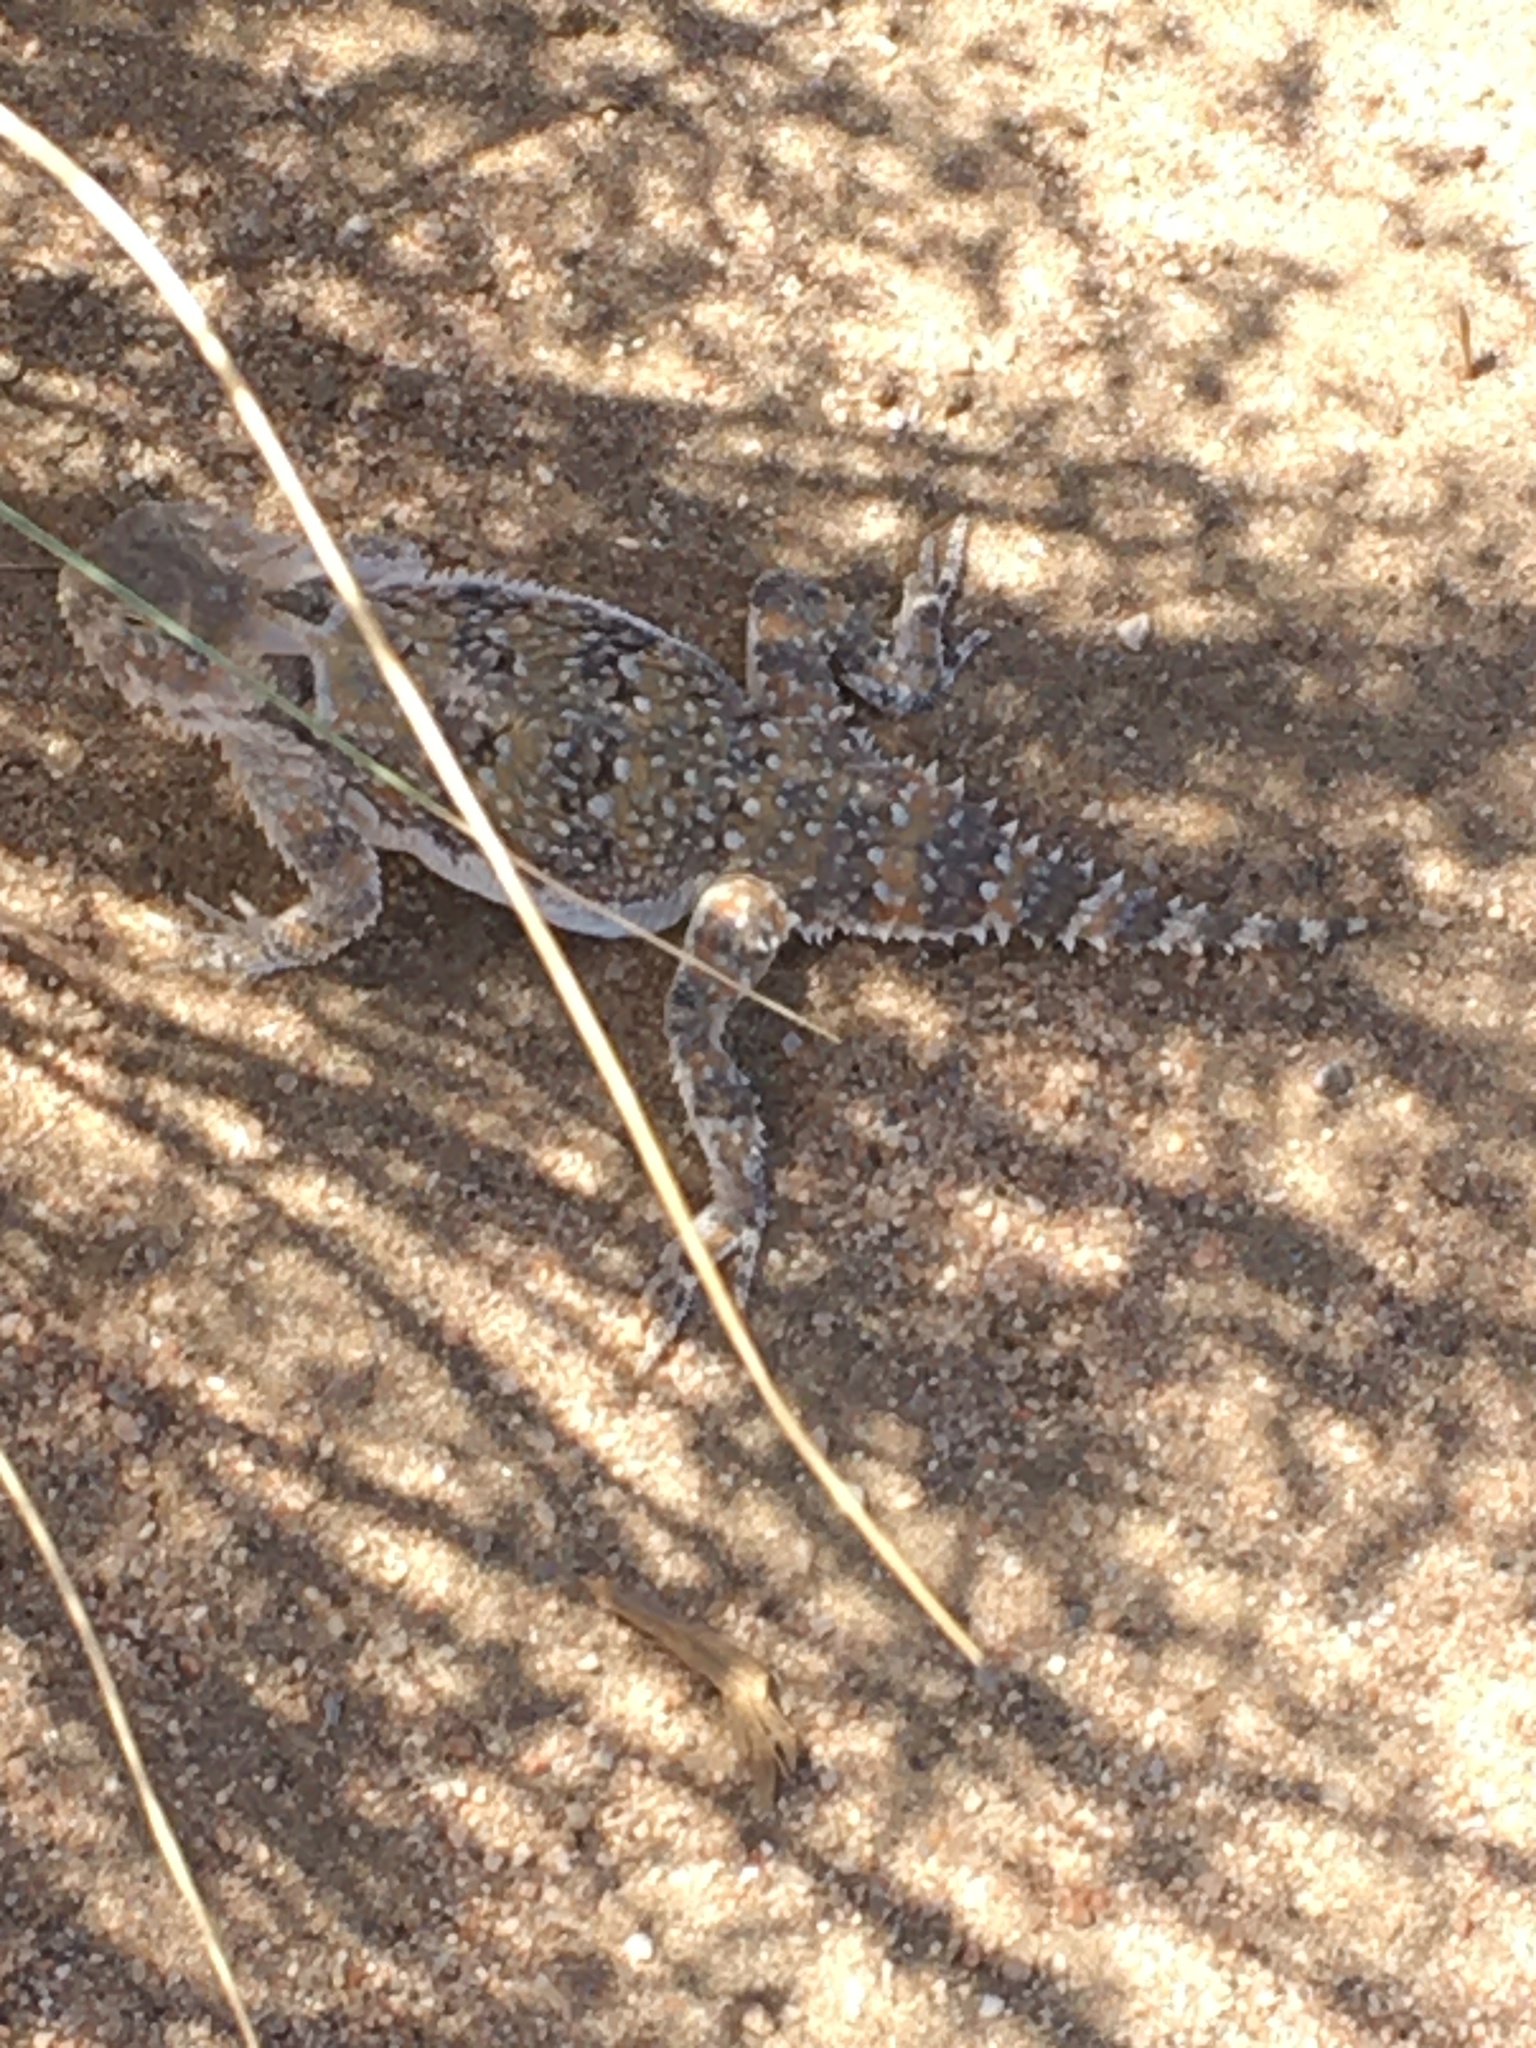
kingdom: Animalia
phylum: Chordata
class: Squamata
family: Phrynosomatidae
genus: Phrynosoma
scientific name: Phrynosoma platyrhinos
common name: Desert horned lizard
